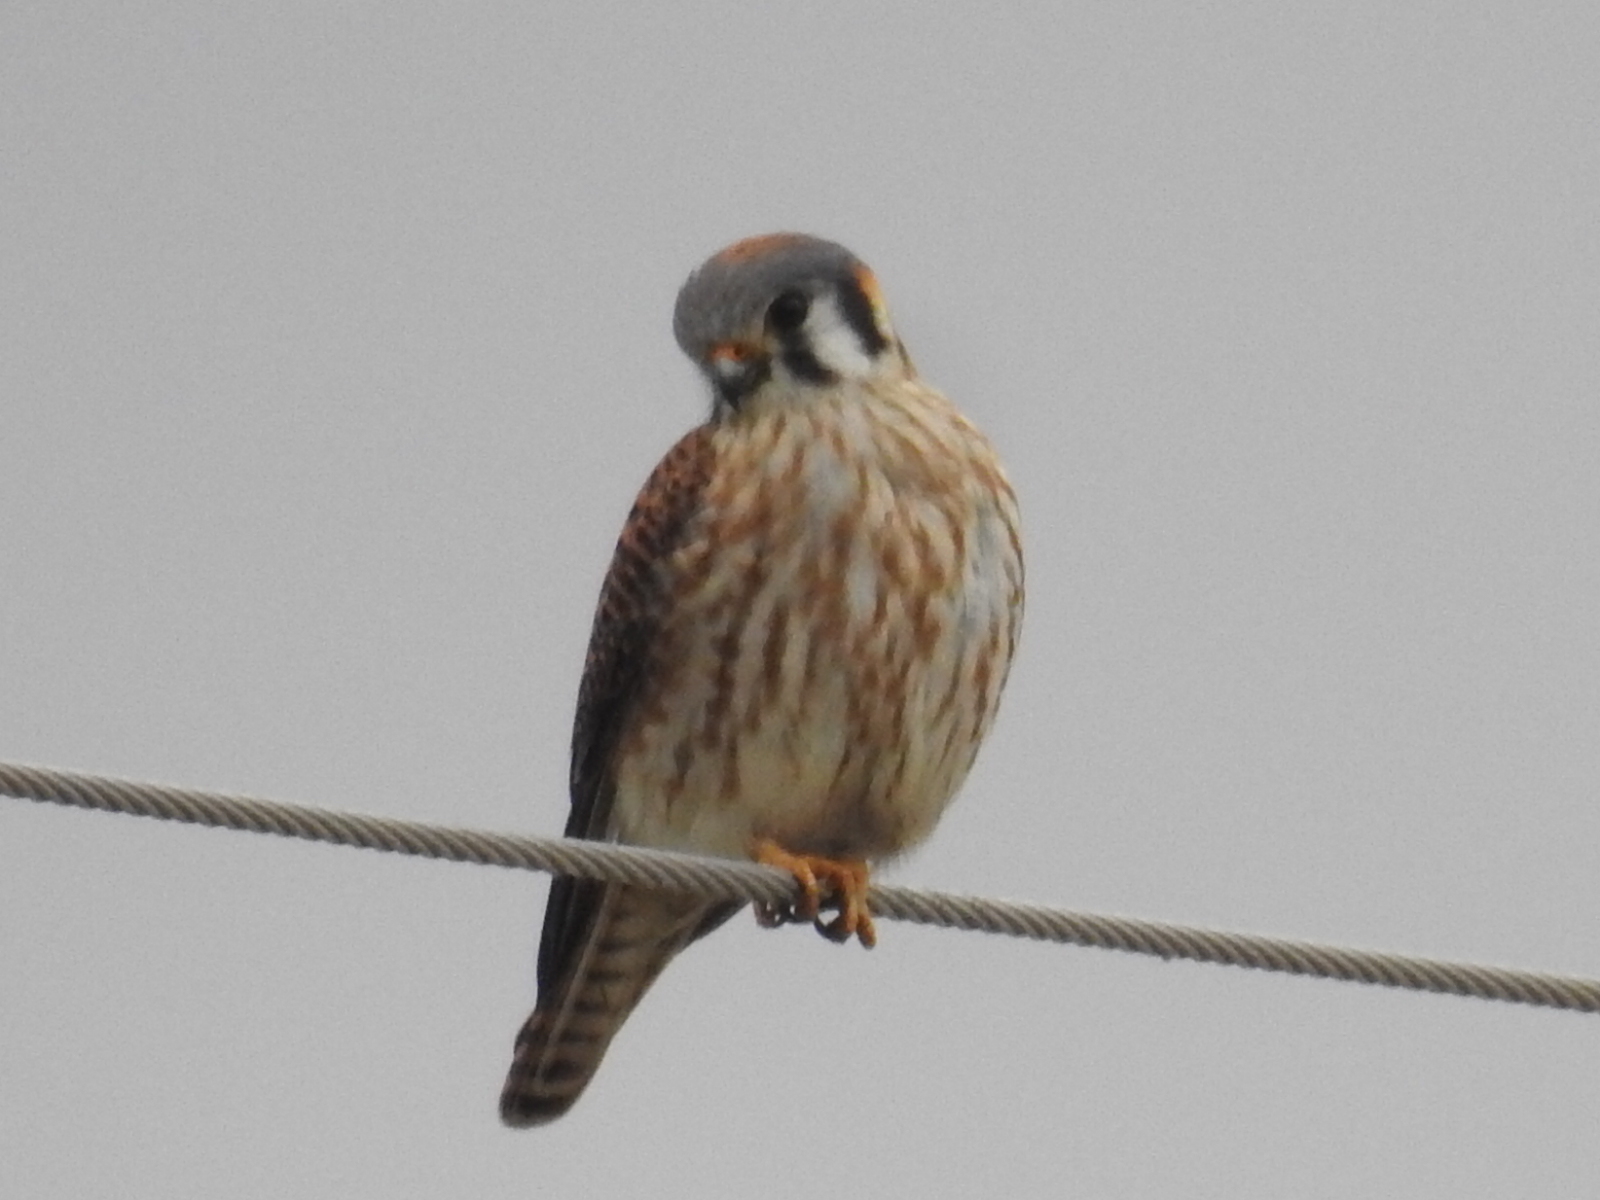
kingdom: Animalia
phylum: Chordata
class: Aves
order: Falconiformes
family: Falconidae
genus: Falco
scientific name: Falco sparverius
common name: American kestrel
